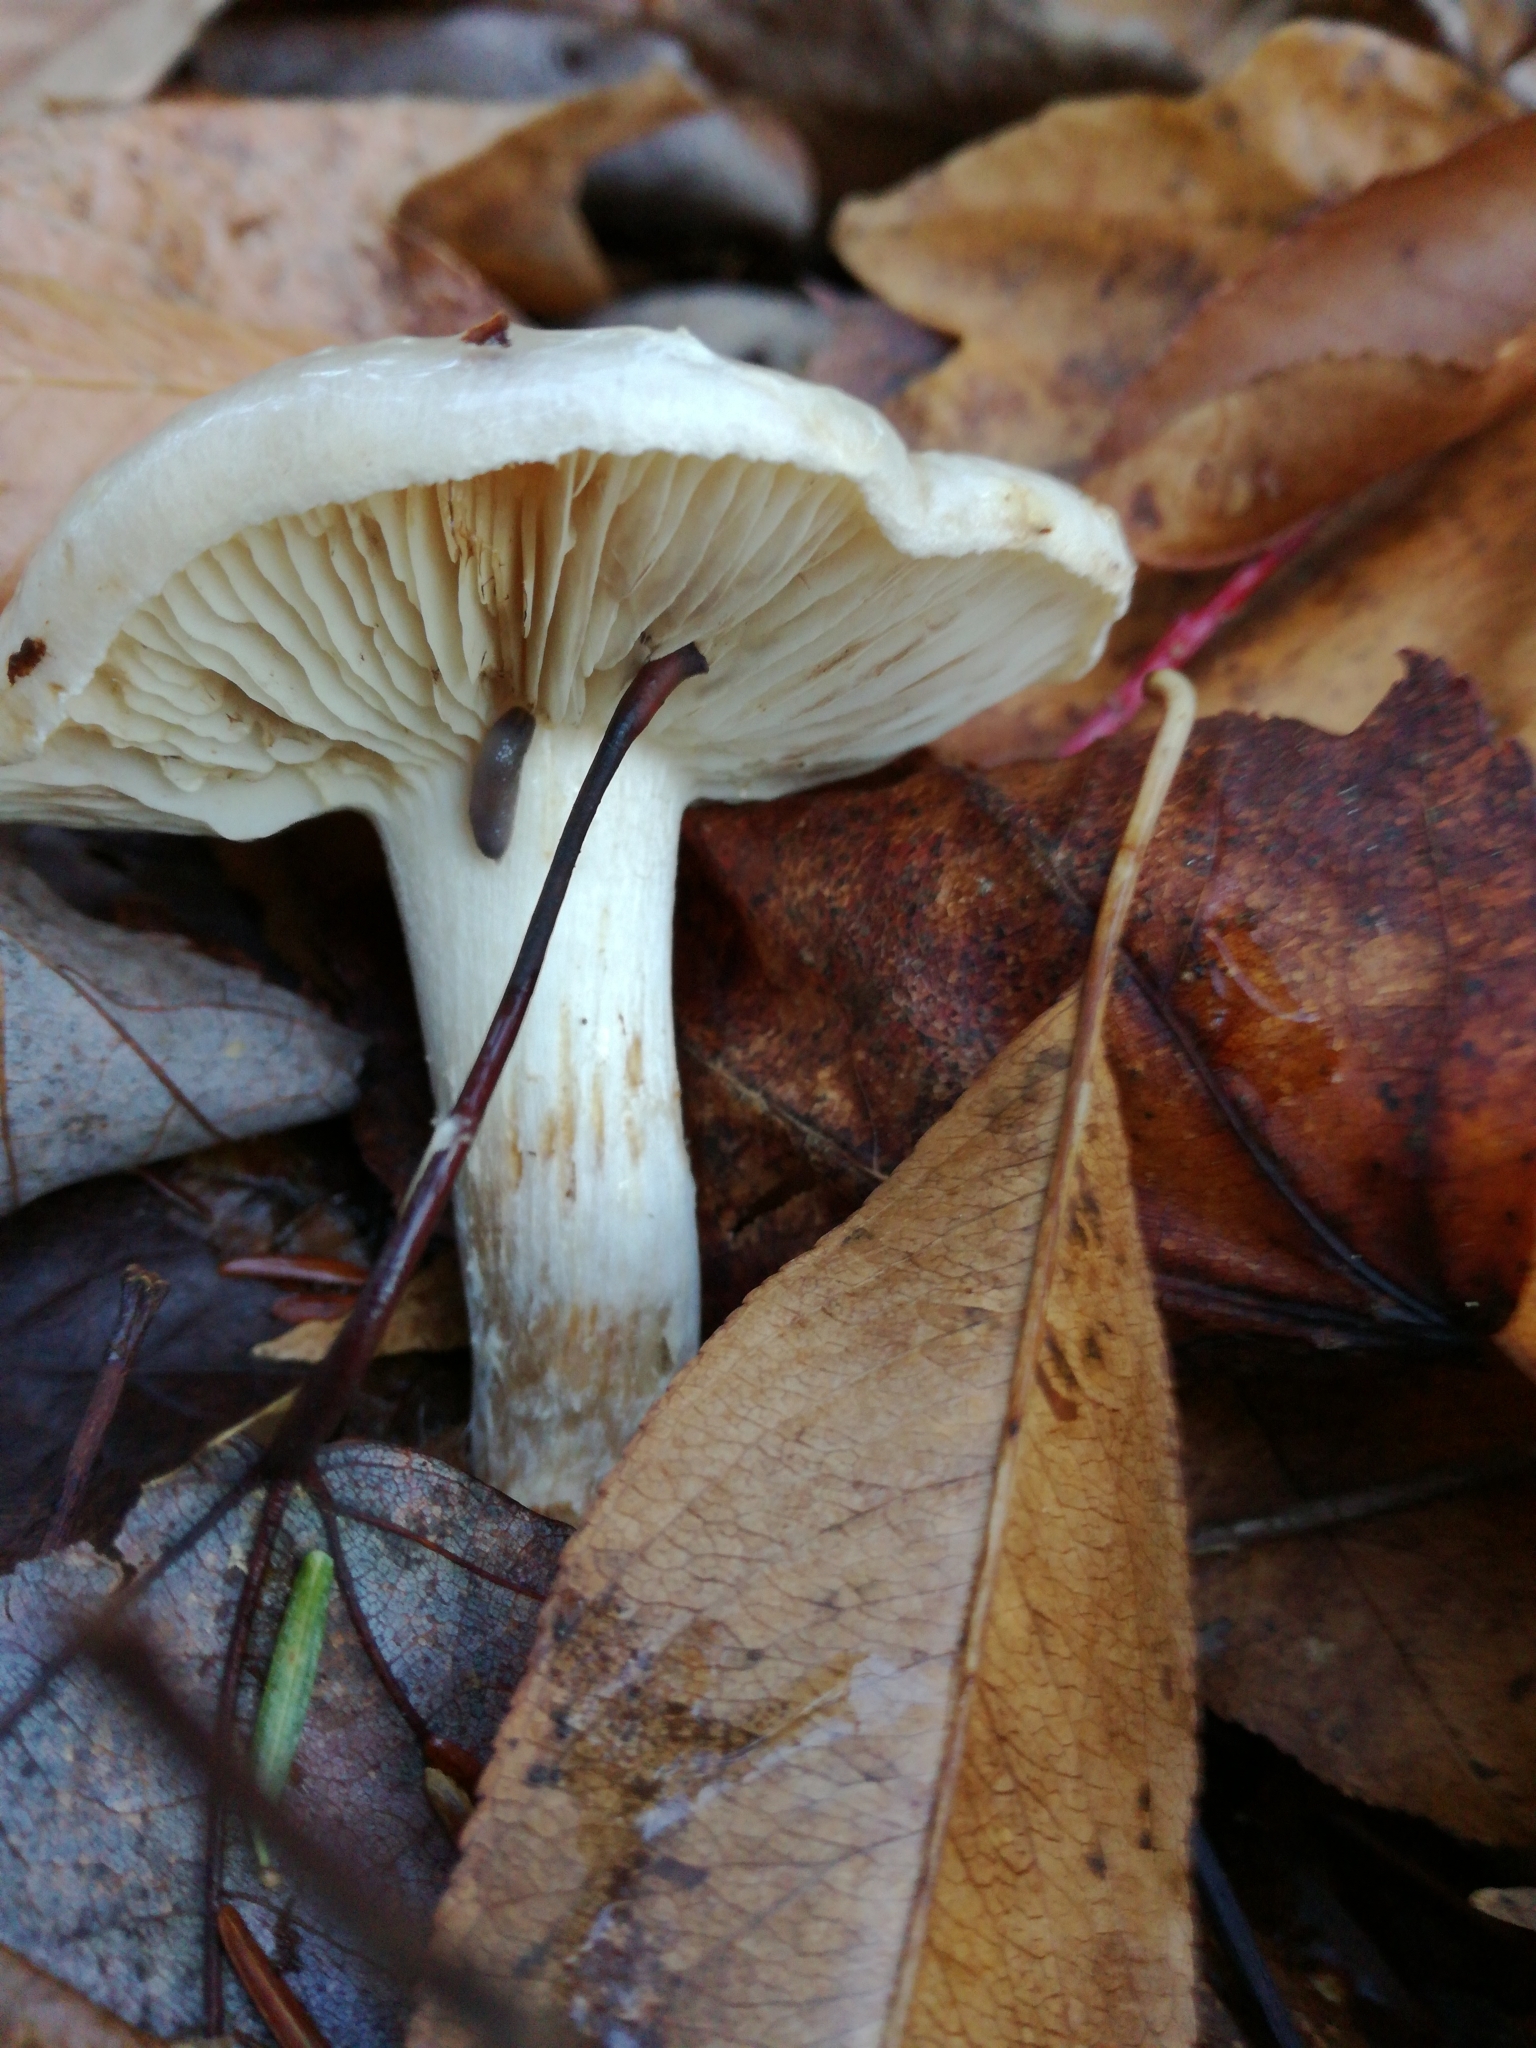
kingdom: Fungi
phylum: Basidiomycota
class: Agaricomycetes
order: Agaricales
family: Hygrophoraceae
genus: Hygrophorus
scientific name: Hygrophorus sordidus
